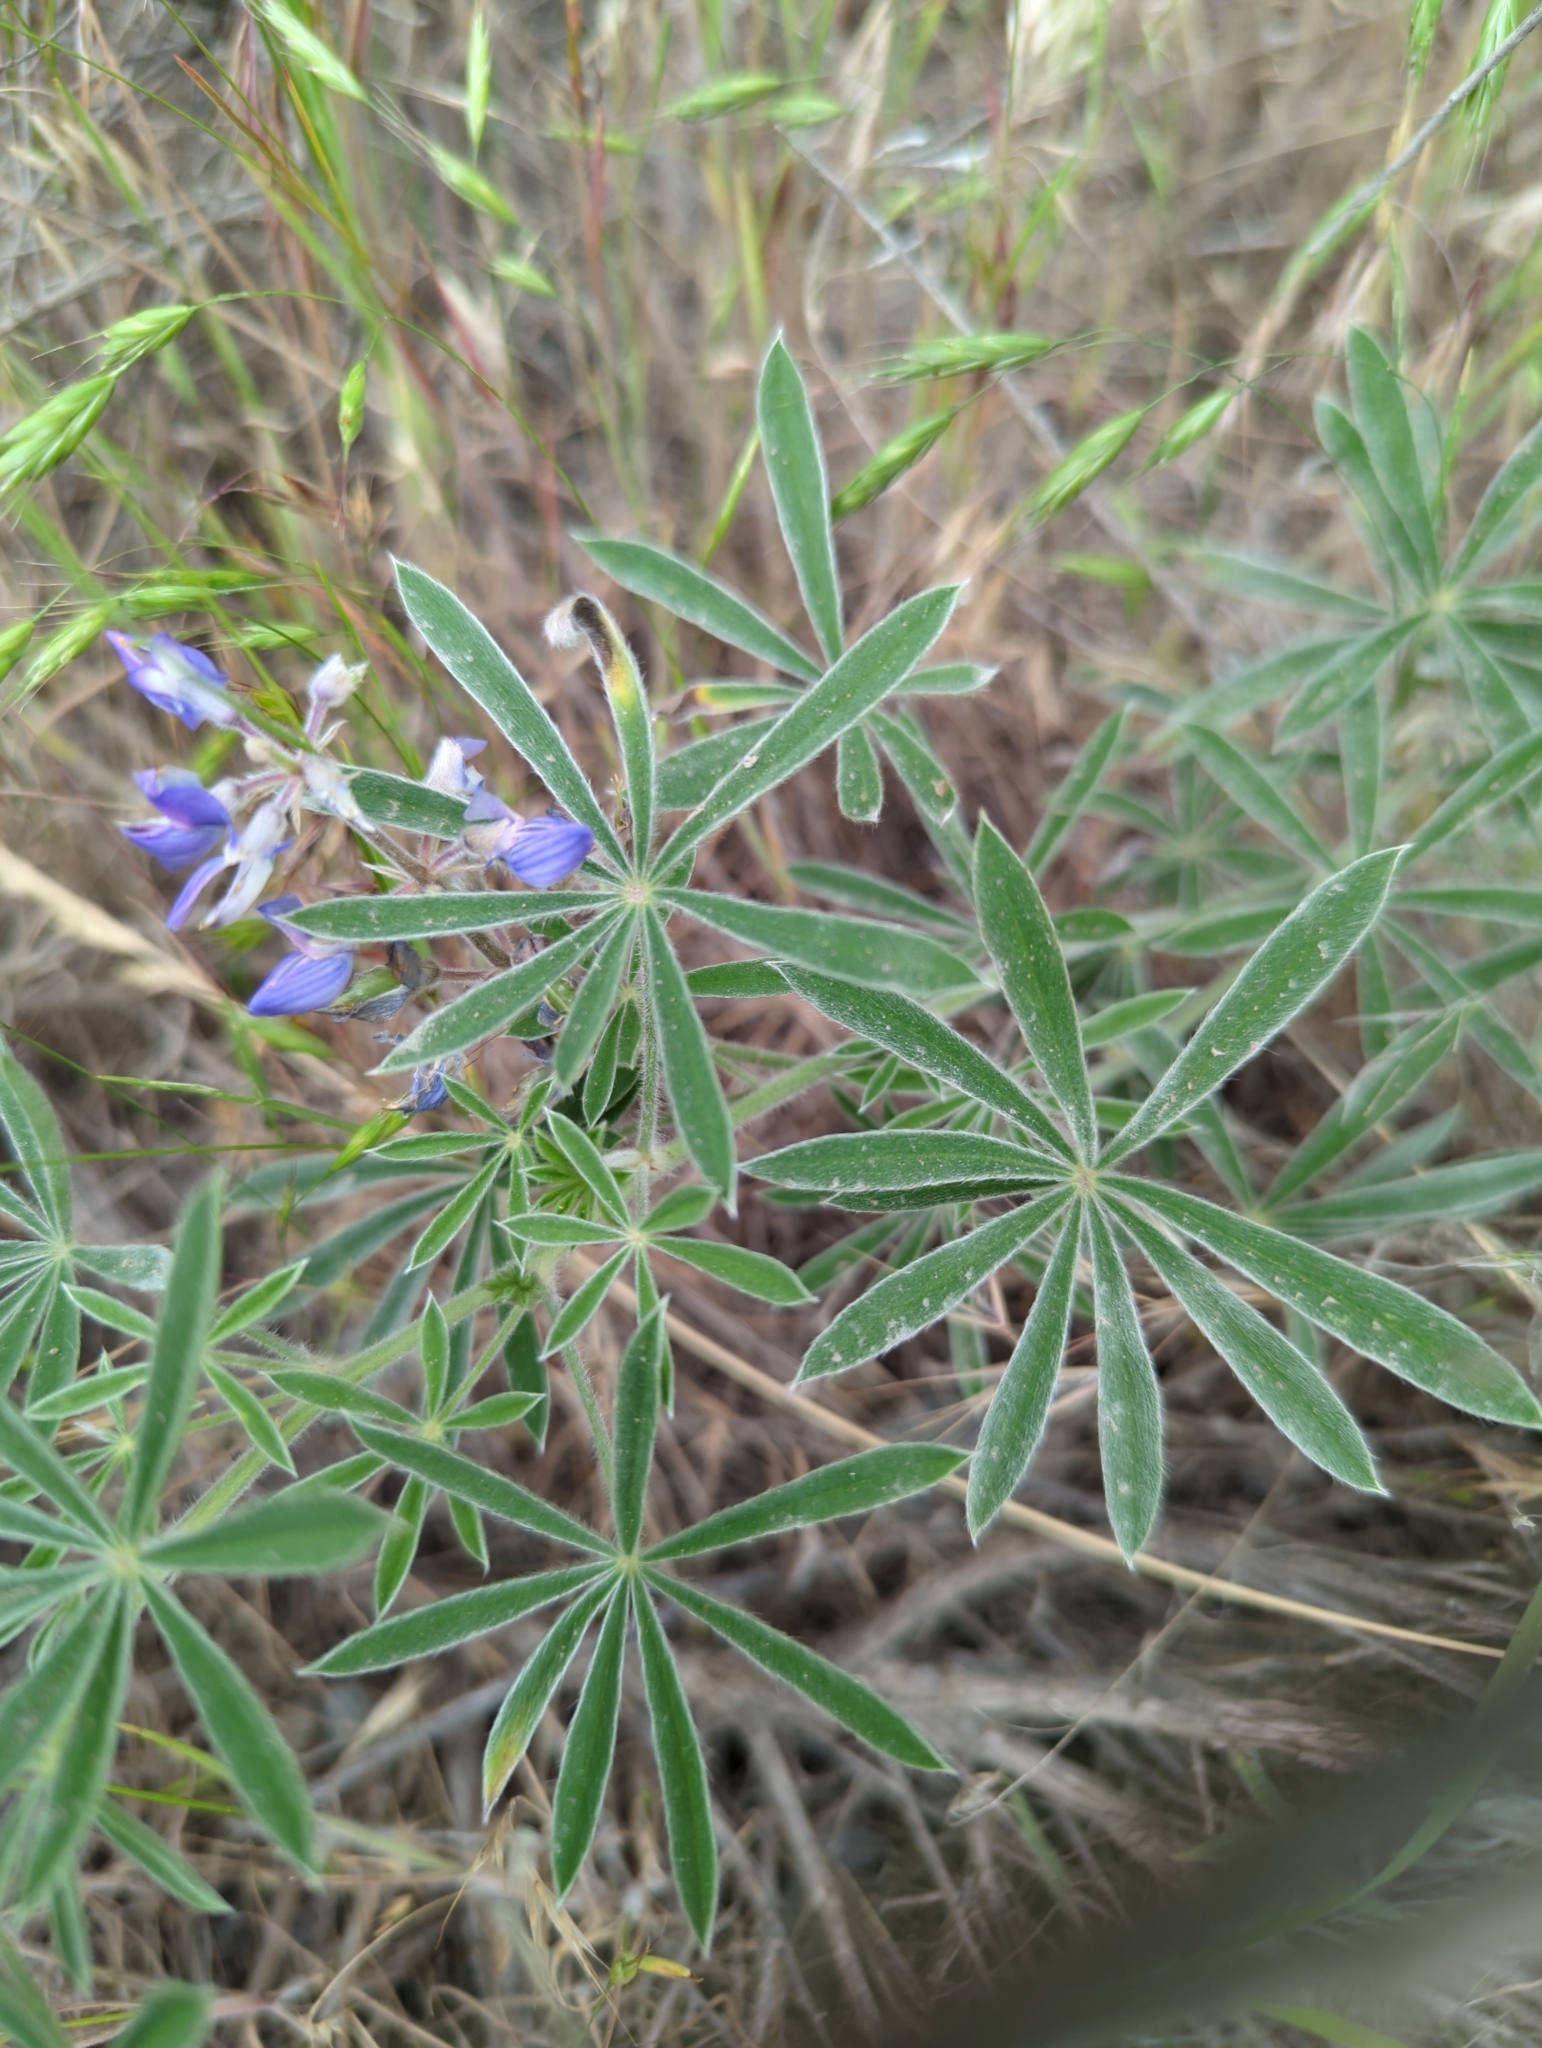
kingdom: Plantae
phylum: Tracheophyta
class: Magnoliopsida
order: Fabales
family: Fabaceae
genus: Lupinus
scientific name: Lupinus sericeus
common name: Silky lupine
